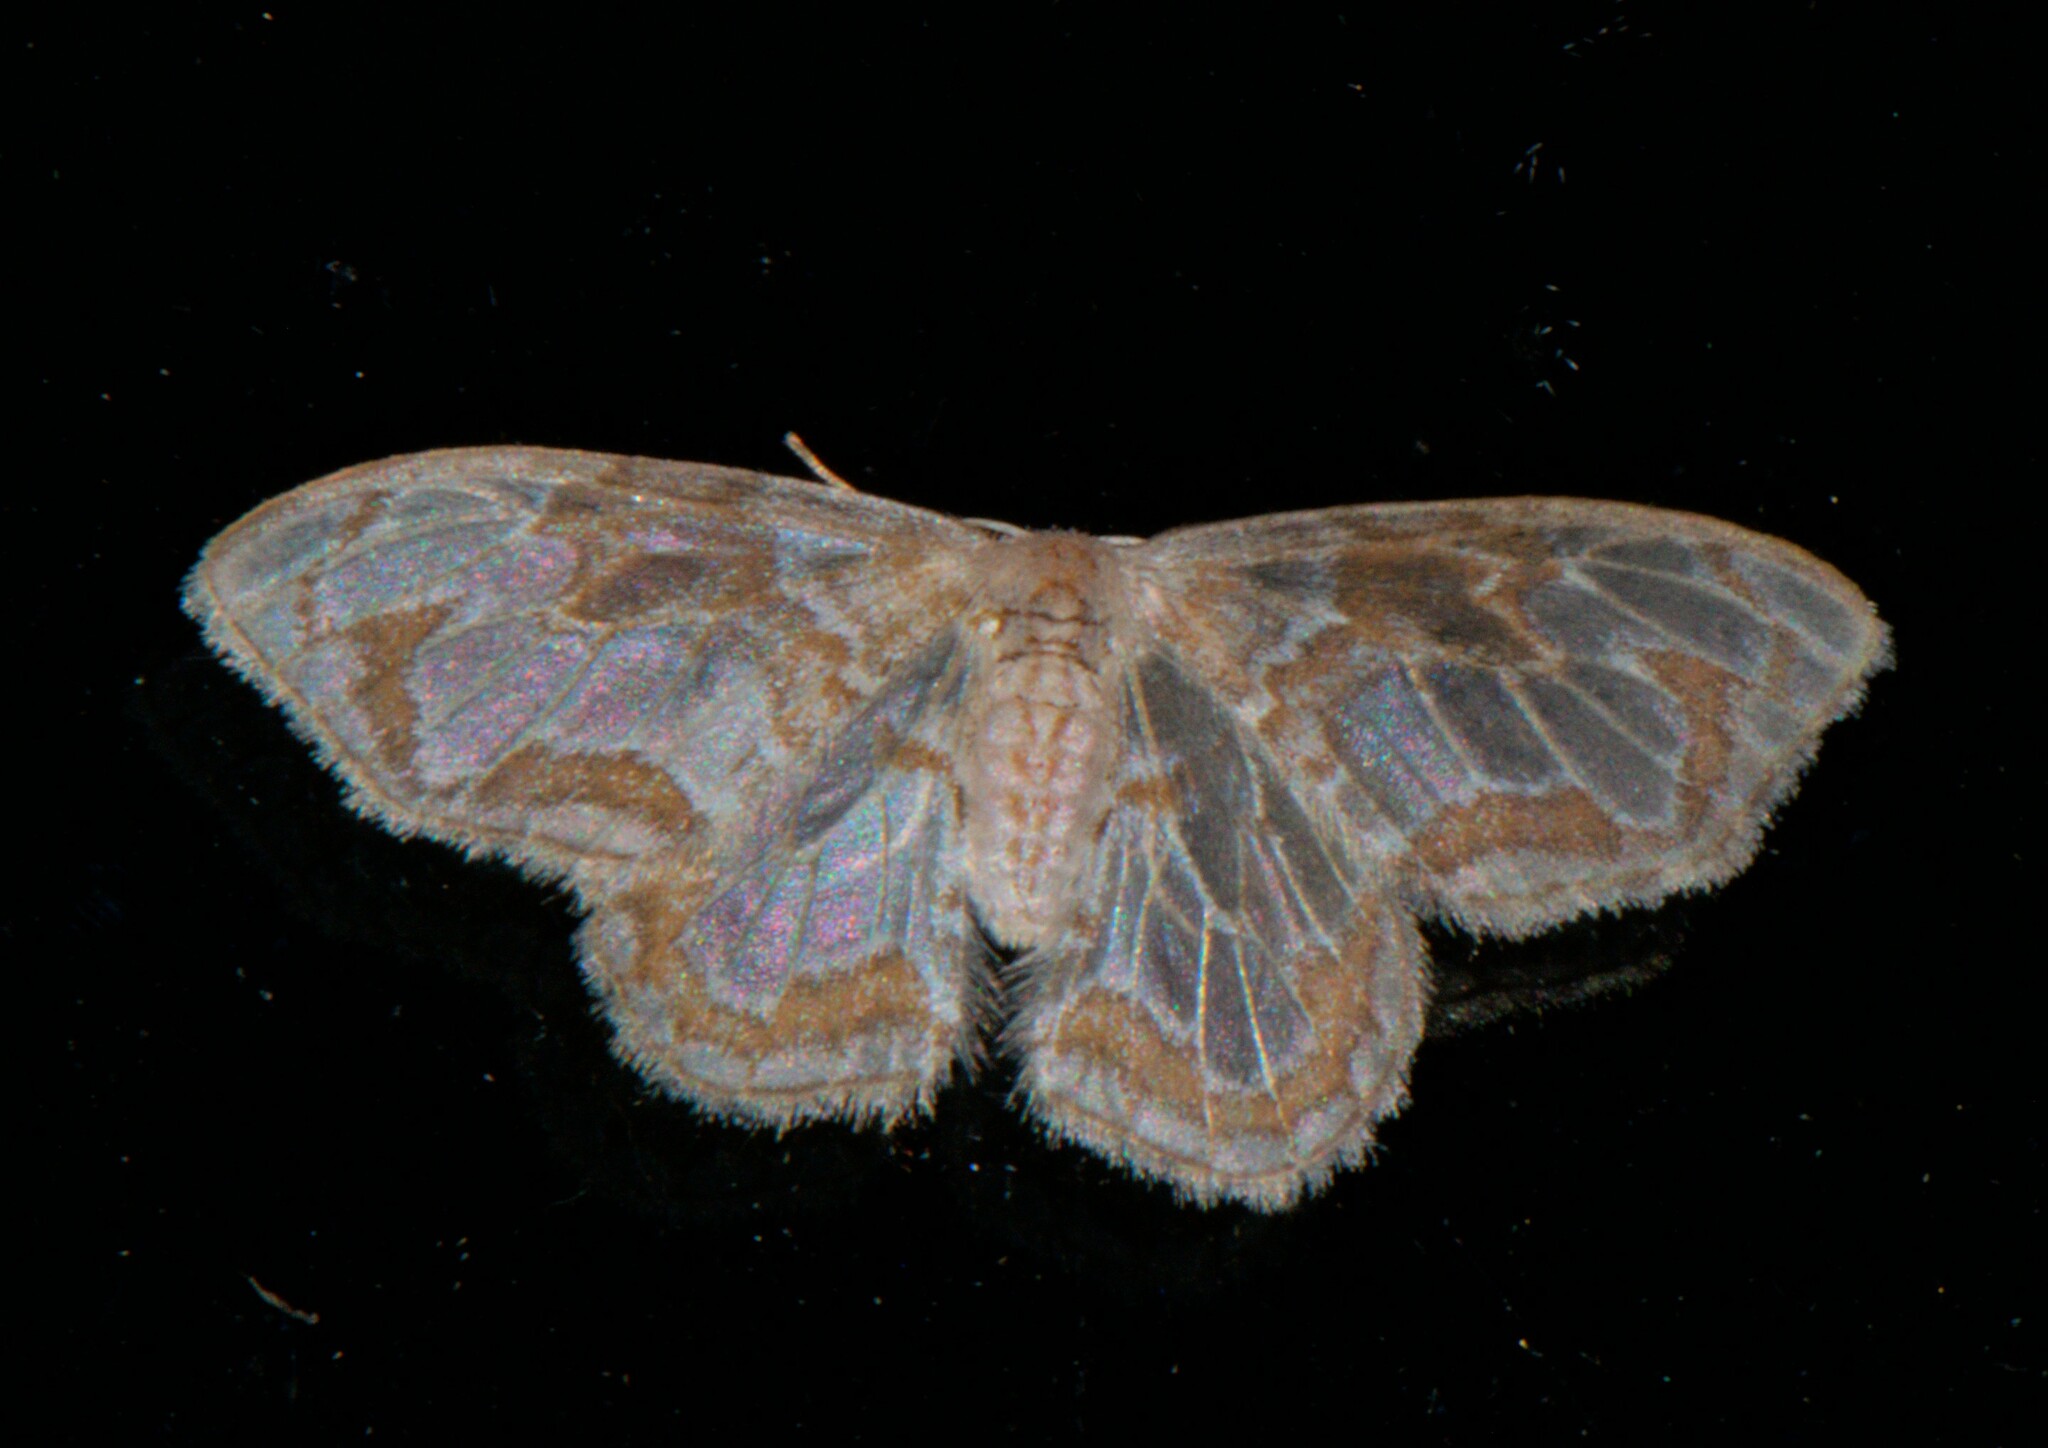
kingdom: Animalia
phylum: Arthropoda
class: Insecta
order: Lepidoptera
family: Drepanidae
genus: Auzatellodes
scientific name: Auzatellodes
